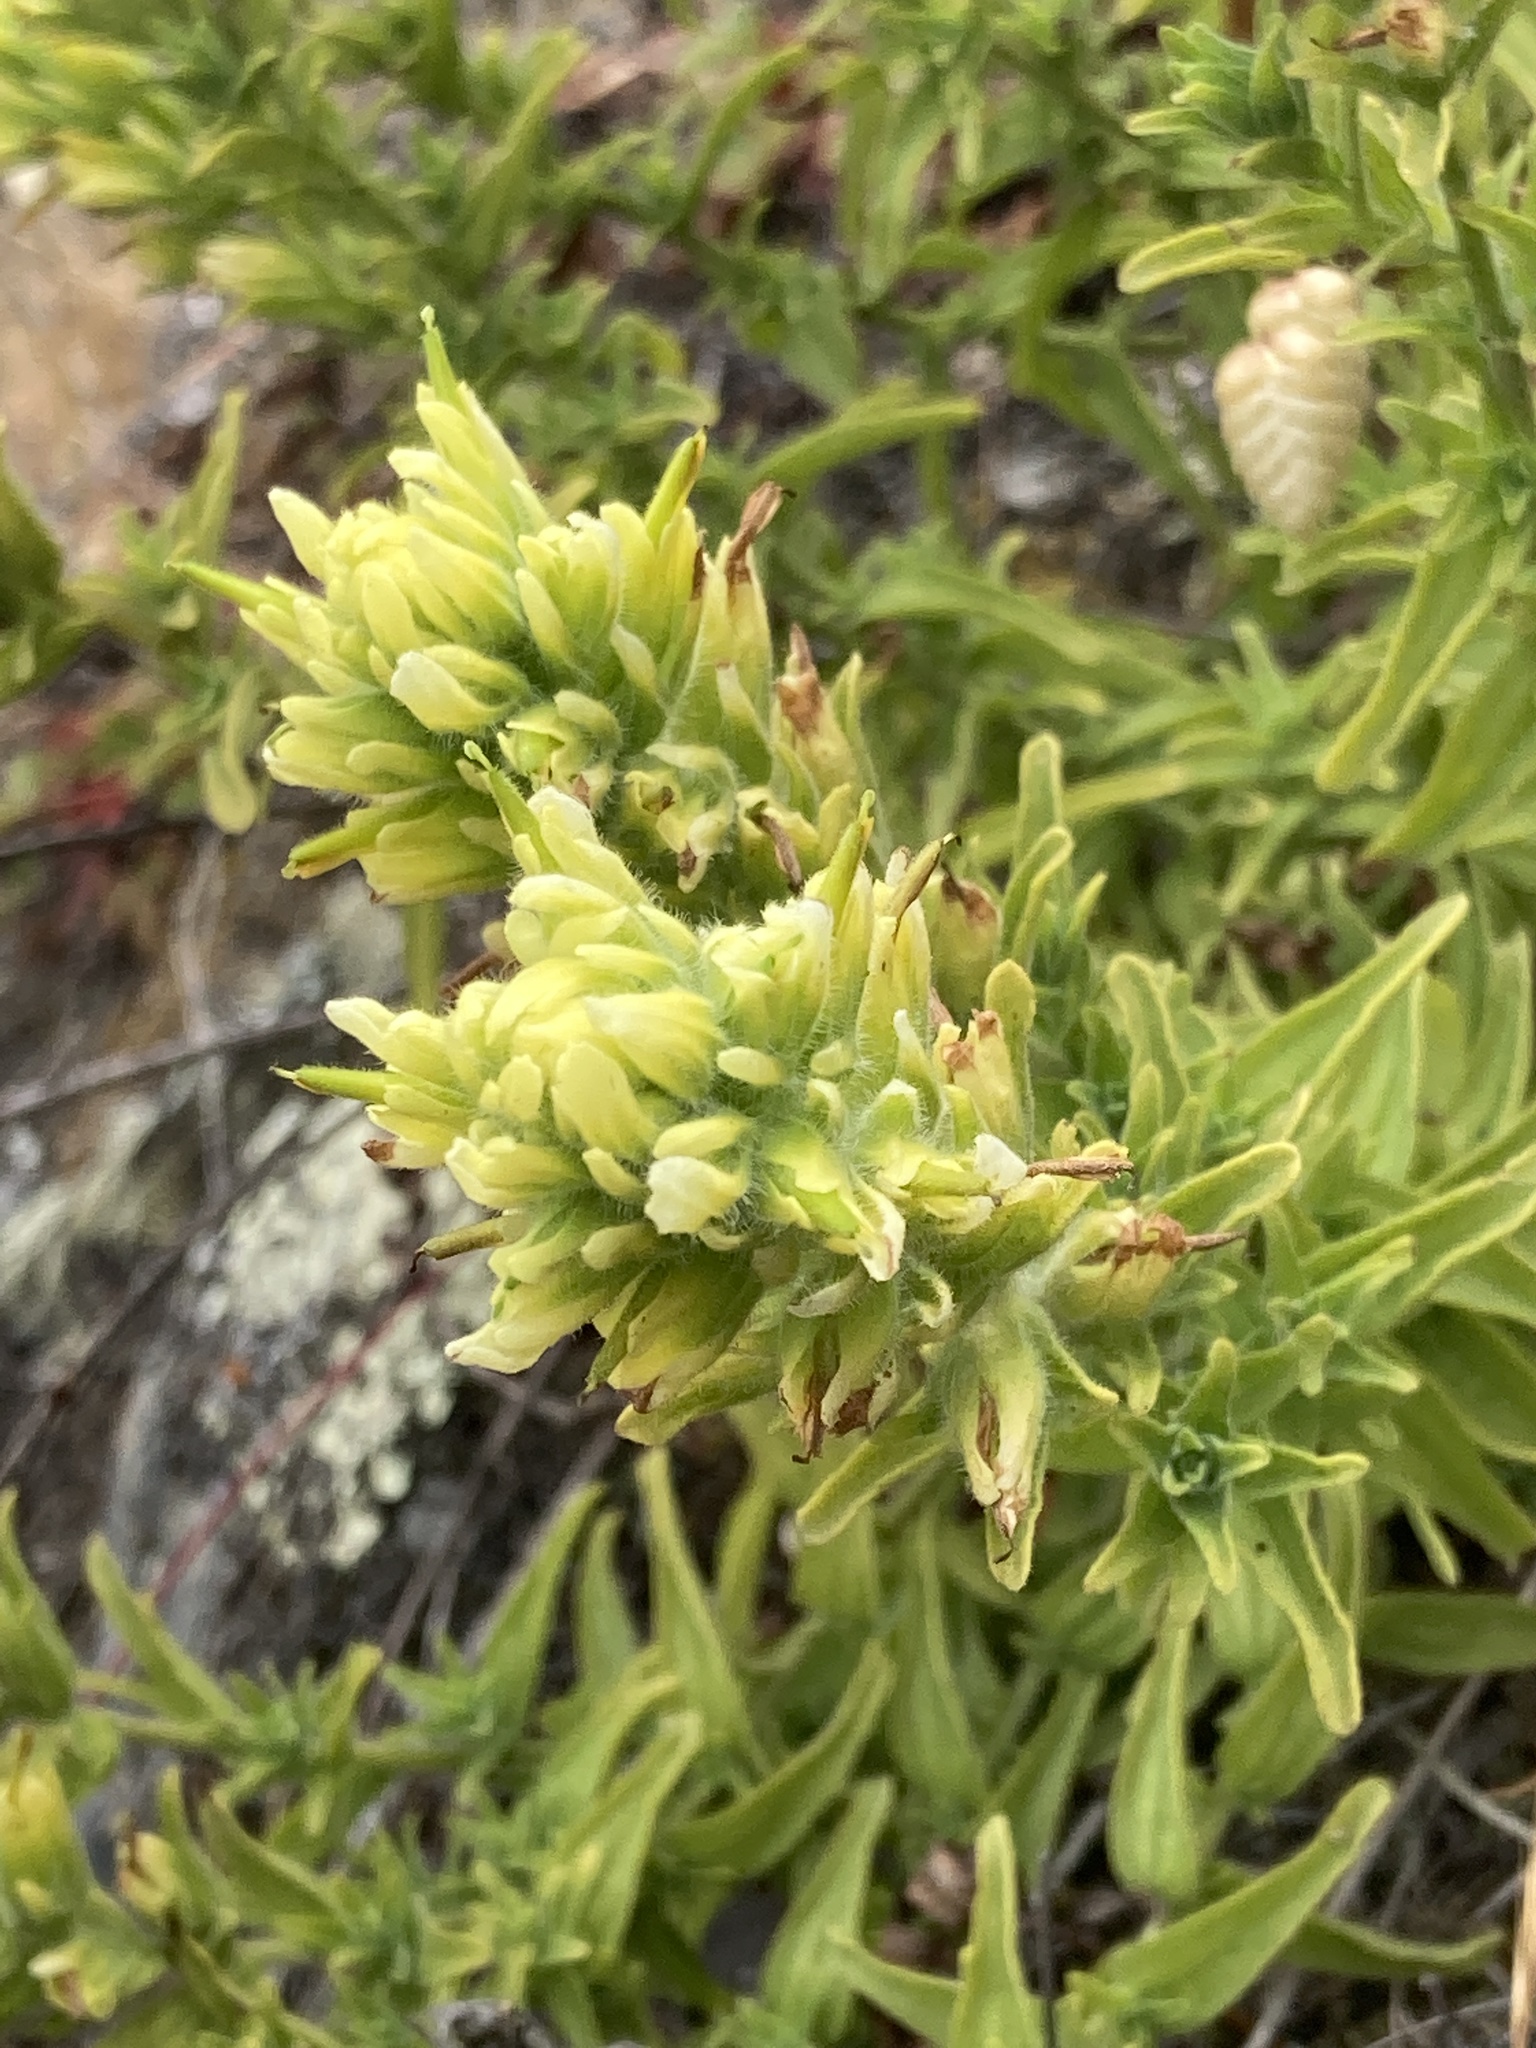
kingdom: Plantae
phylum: Tracheophyta
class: Magnoliopsida
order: Lamiales
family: Orobanchaceae
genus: Castilleja
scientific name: Castilleja wightii
